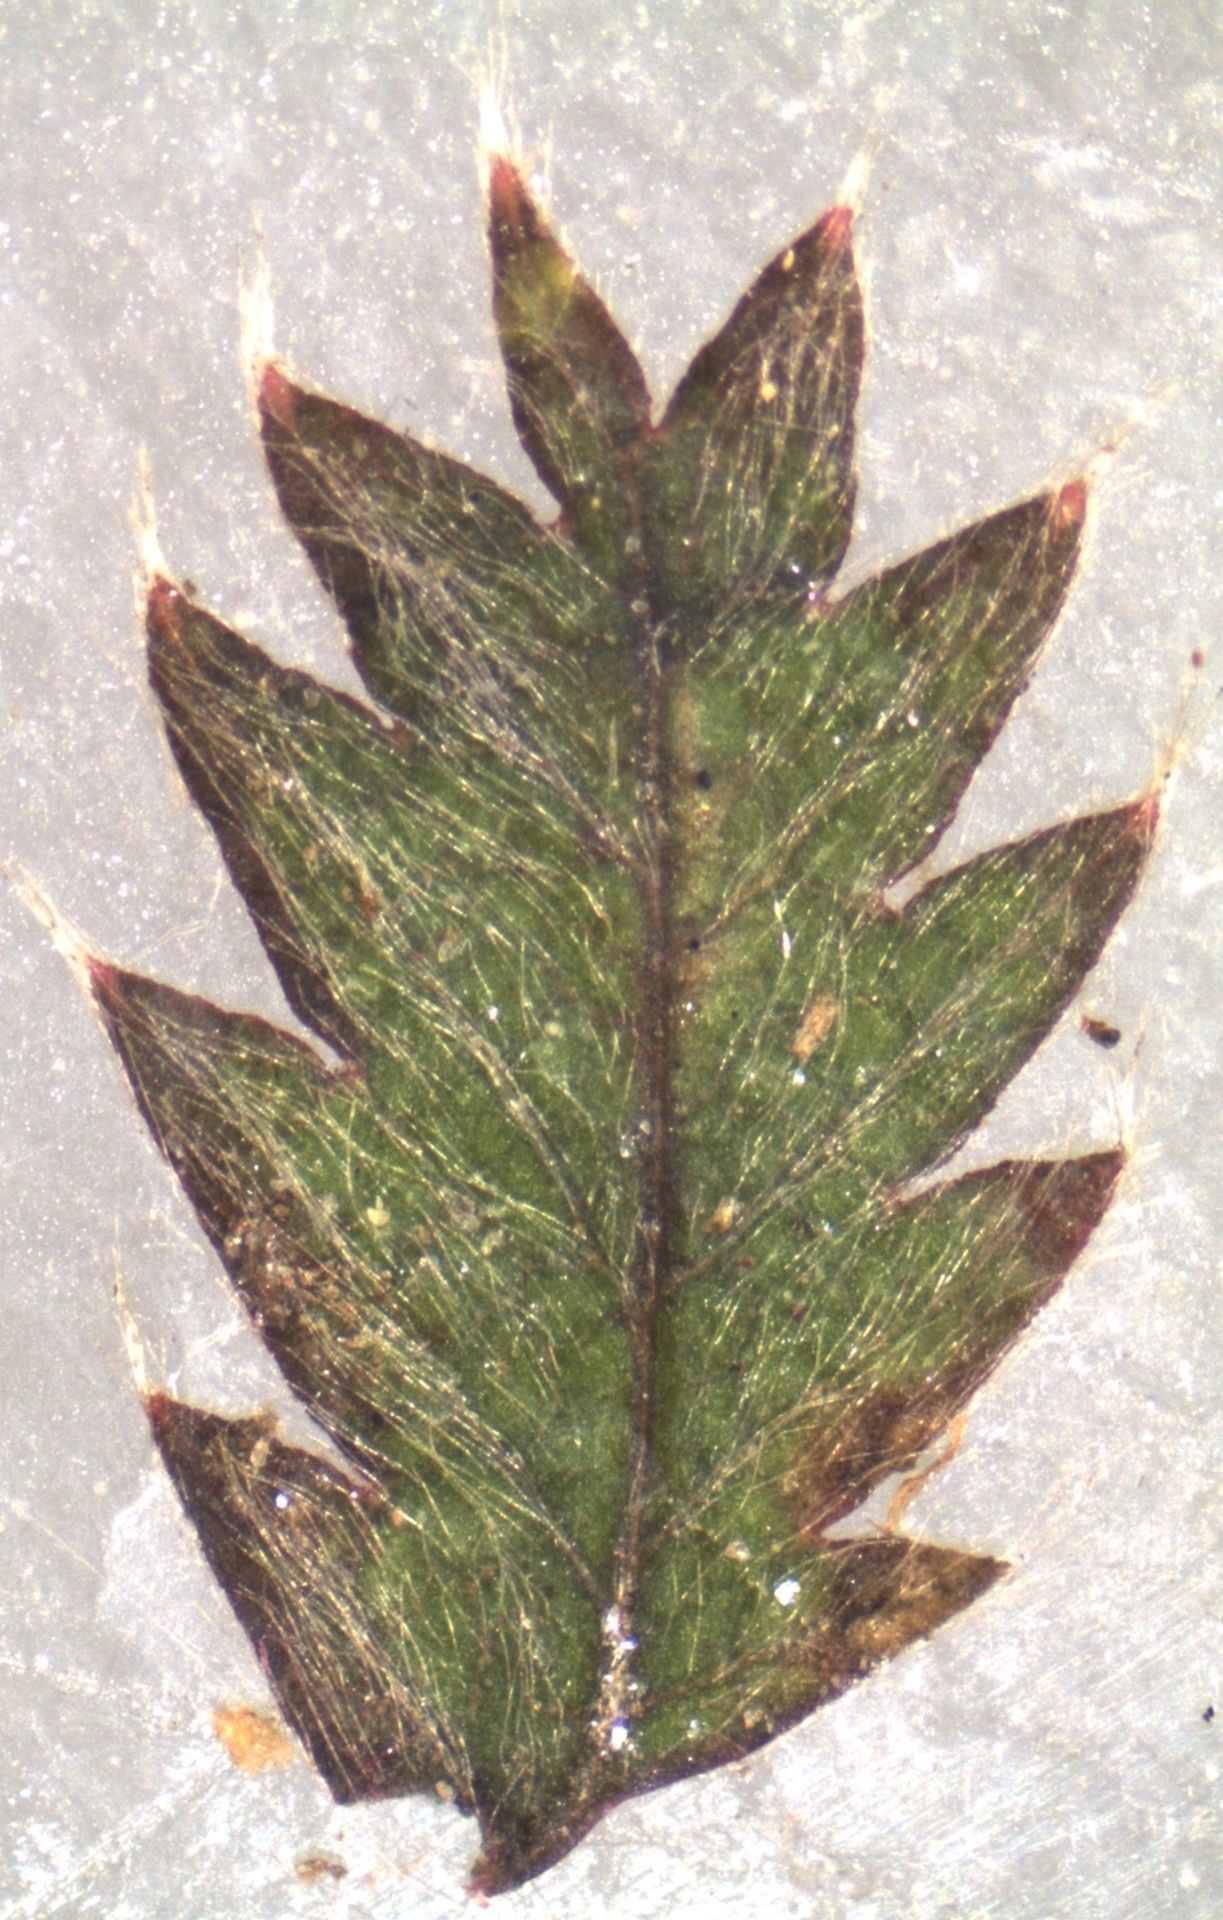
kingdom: Plantae
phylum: Tracheophyta
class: Magnoliopsida
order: Rosales
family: Rosaceae
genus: Acaena
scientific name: Acaena anserinifolia
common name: Bronze pirri-pirri-bur
